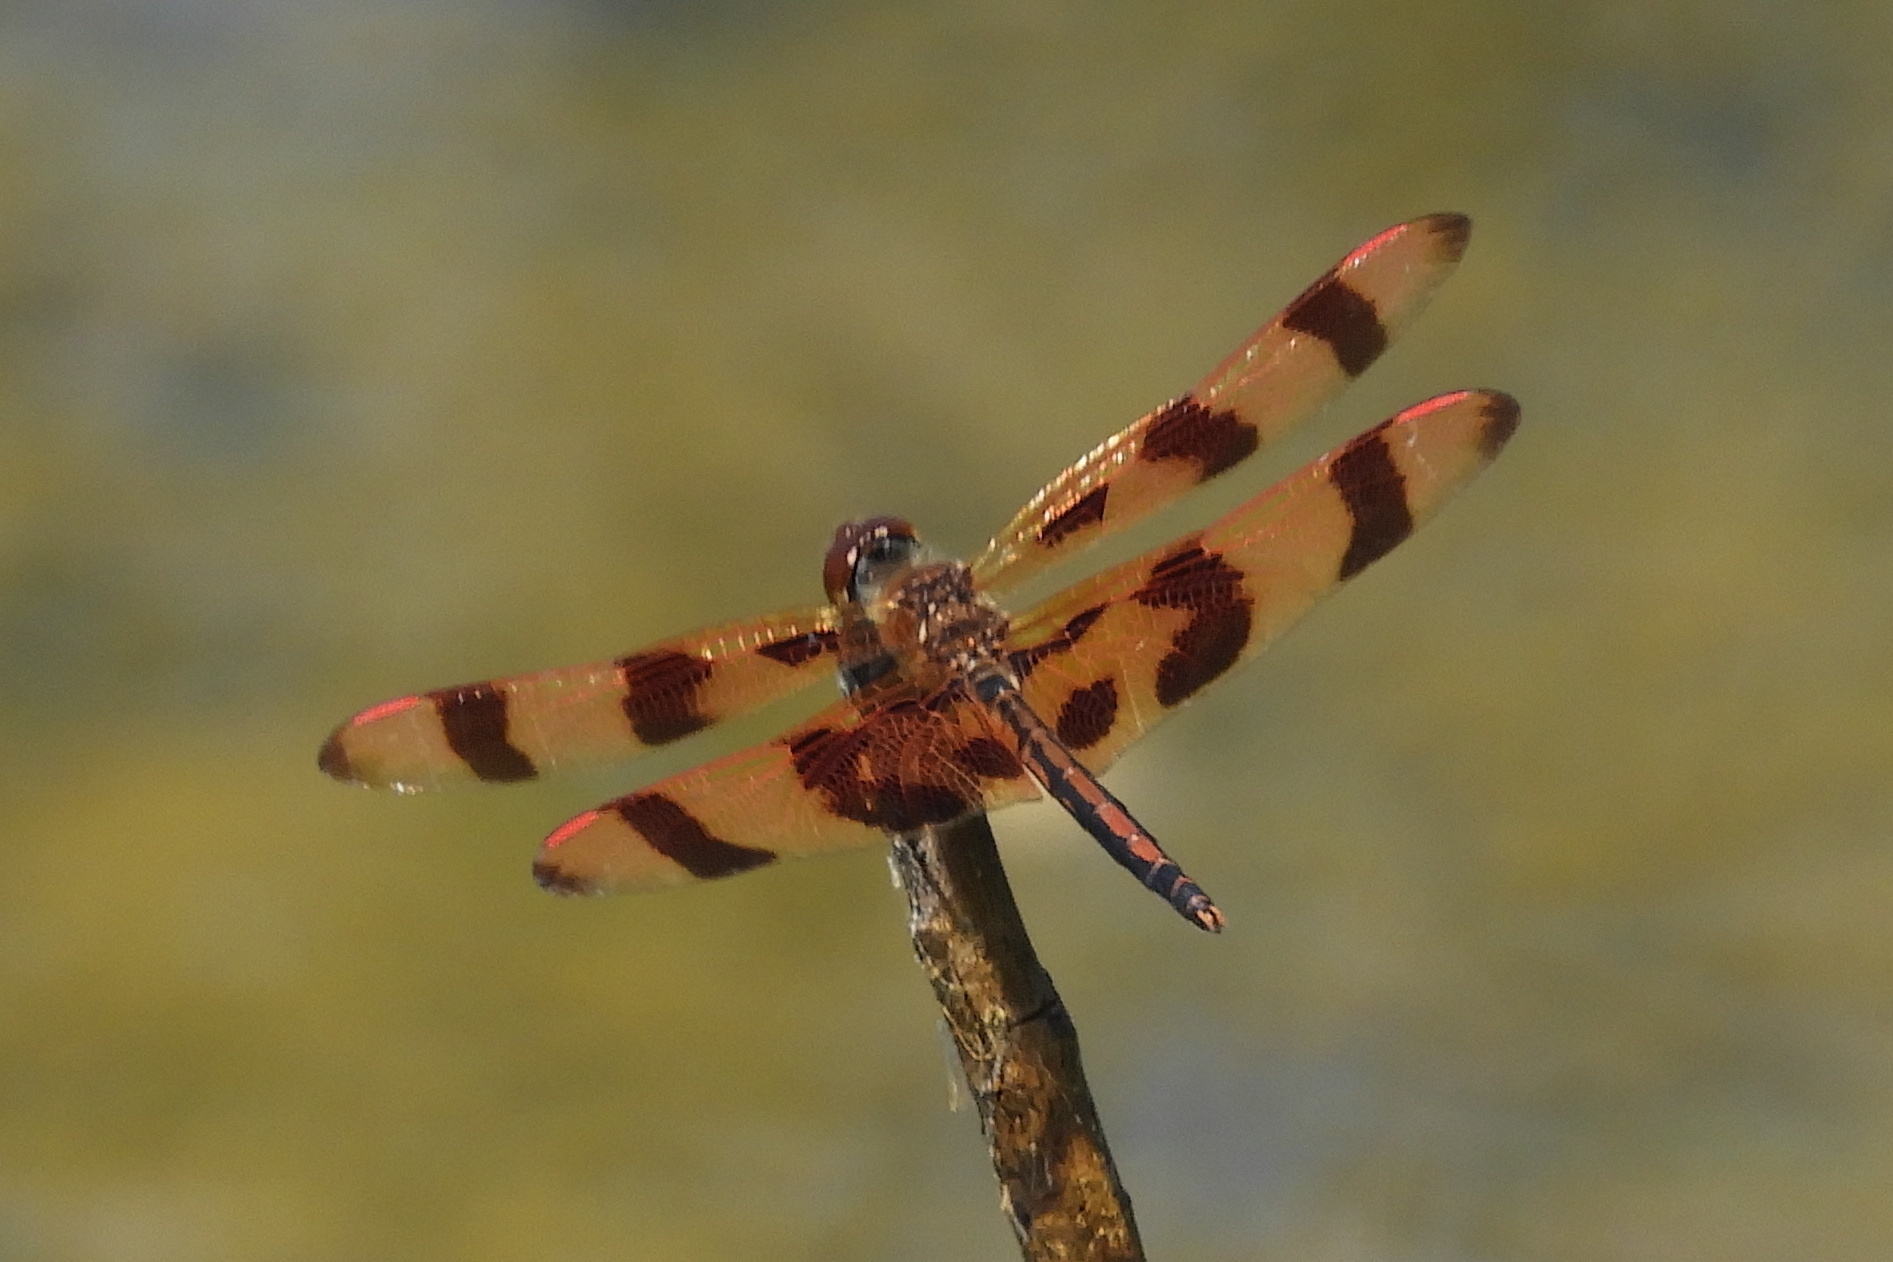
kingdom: Animalia
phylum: Arthropoda
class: Insecta
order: Odonata
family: Libellulidae
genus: Celithemis
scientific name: Celithemis eponina
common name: Halloween pennant
